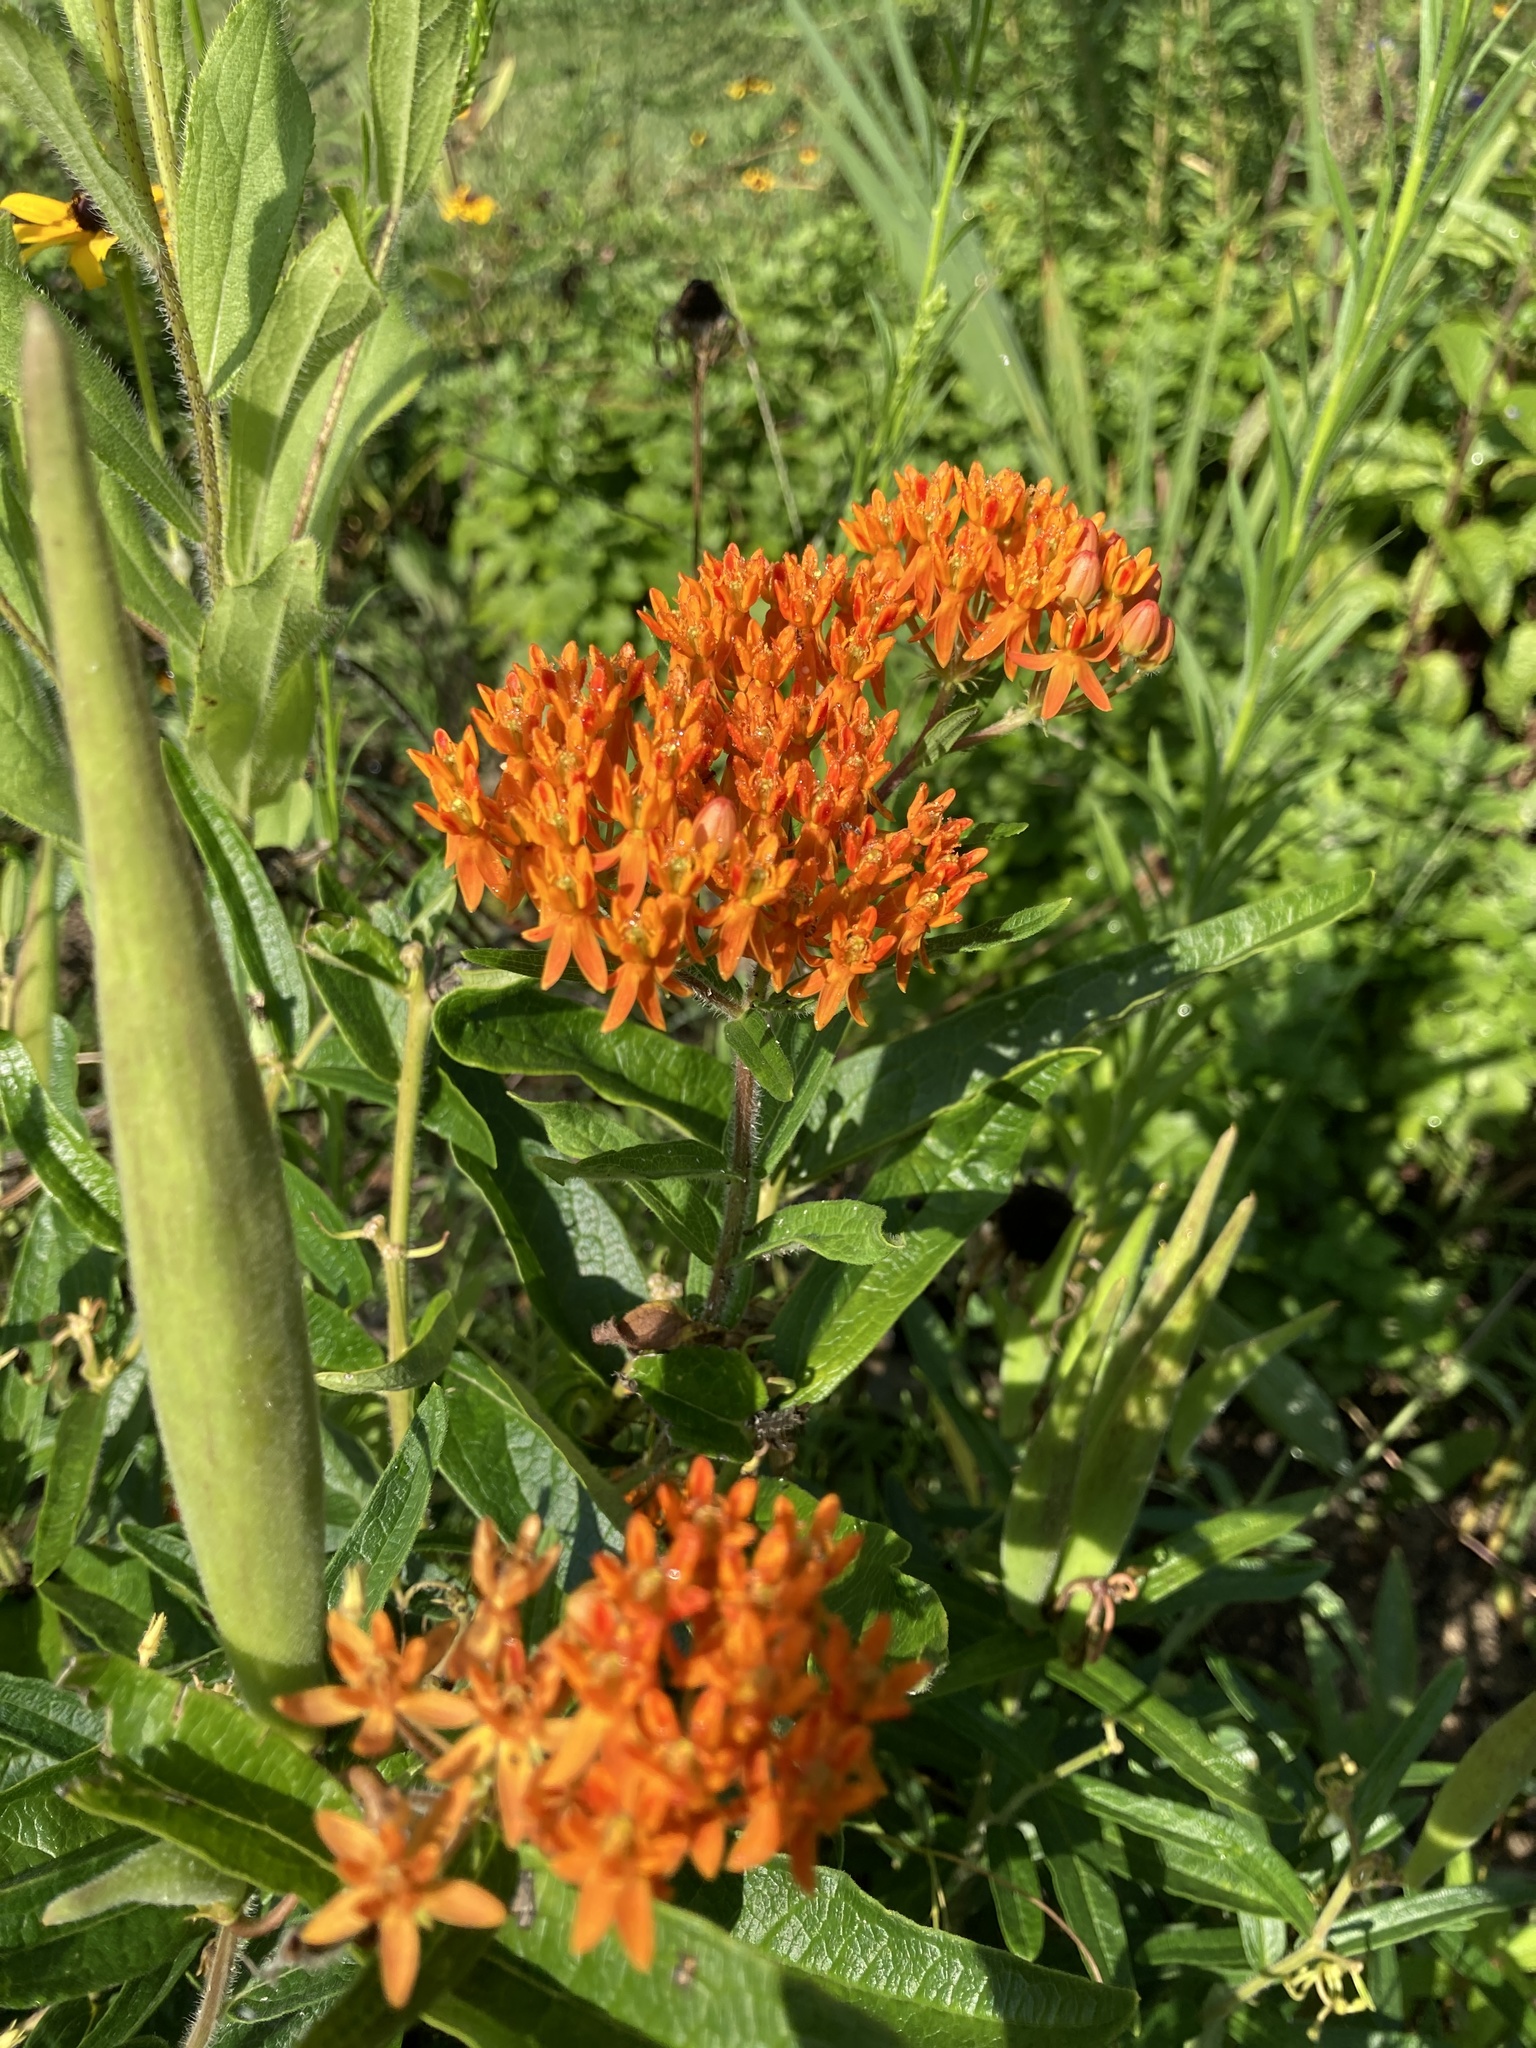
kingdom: Plantae
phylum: Tracheophyta
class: Magnoliopsida
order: Gentianales
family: Apocynaceae
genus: Asclepias
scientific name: Asclepias tuberosa
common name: Butterfly milkweed
